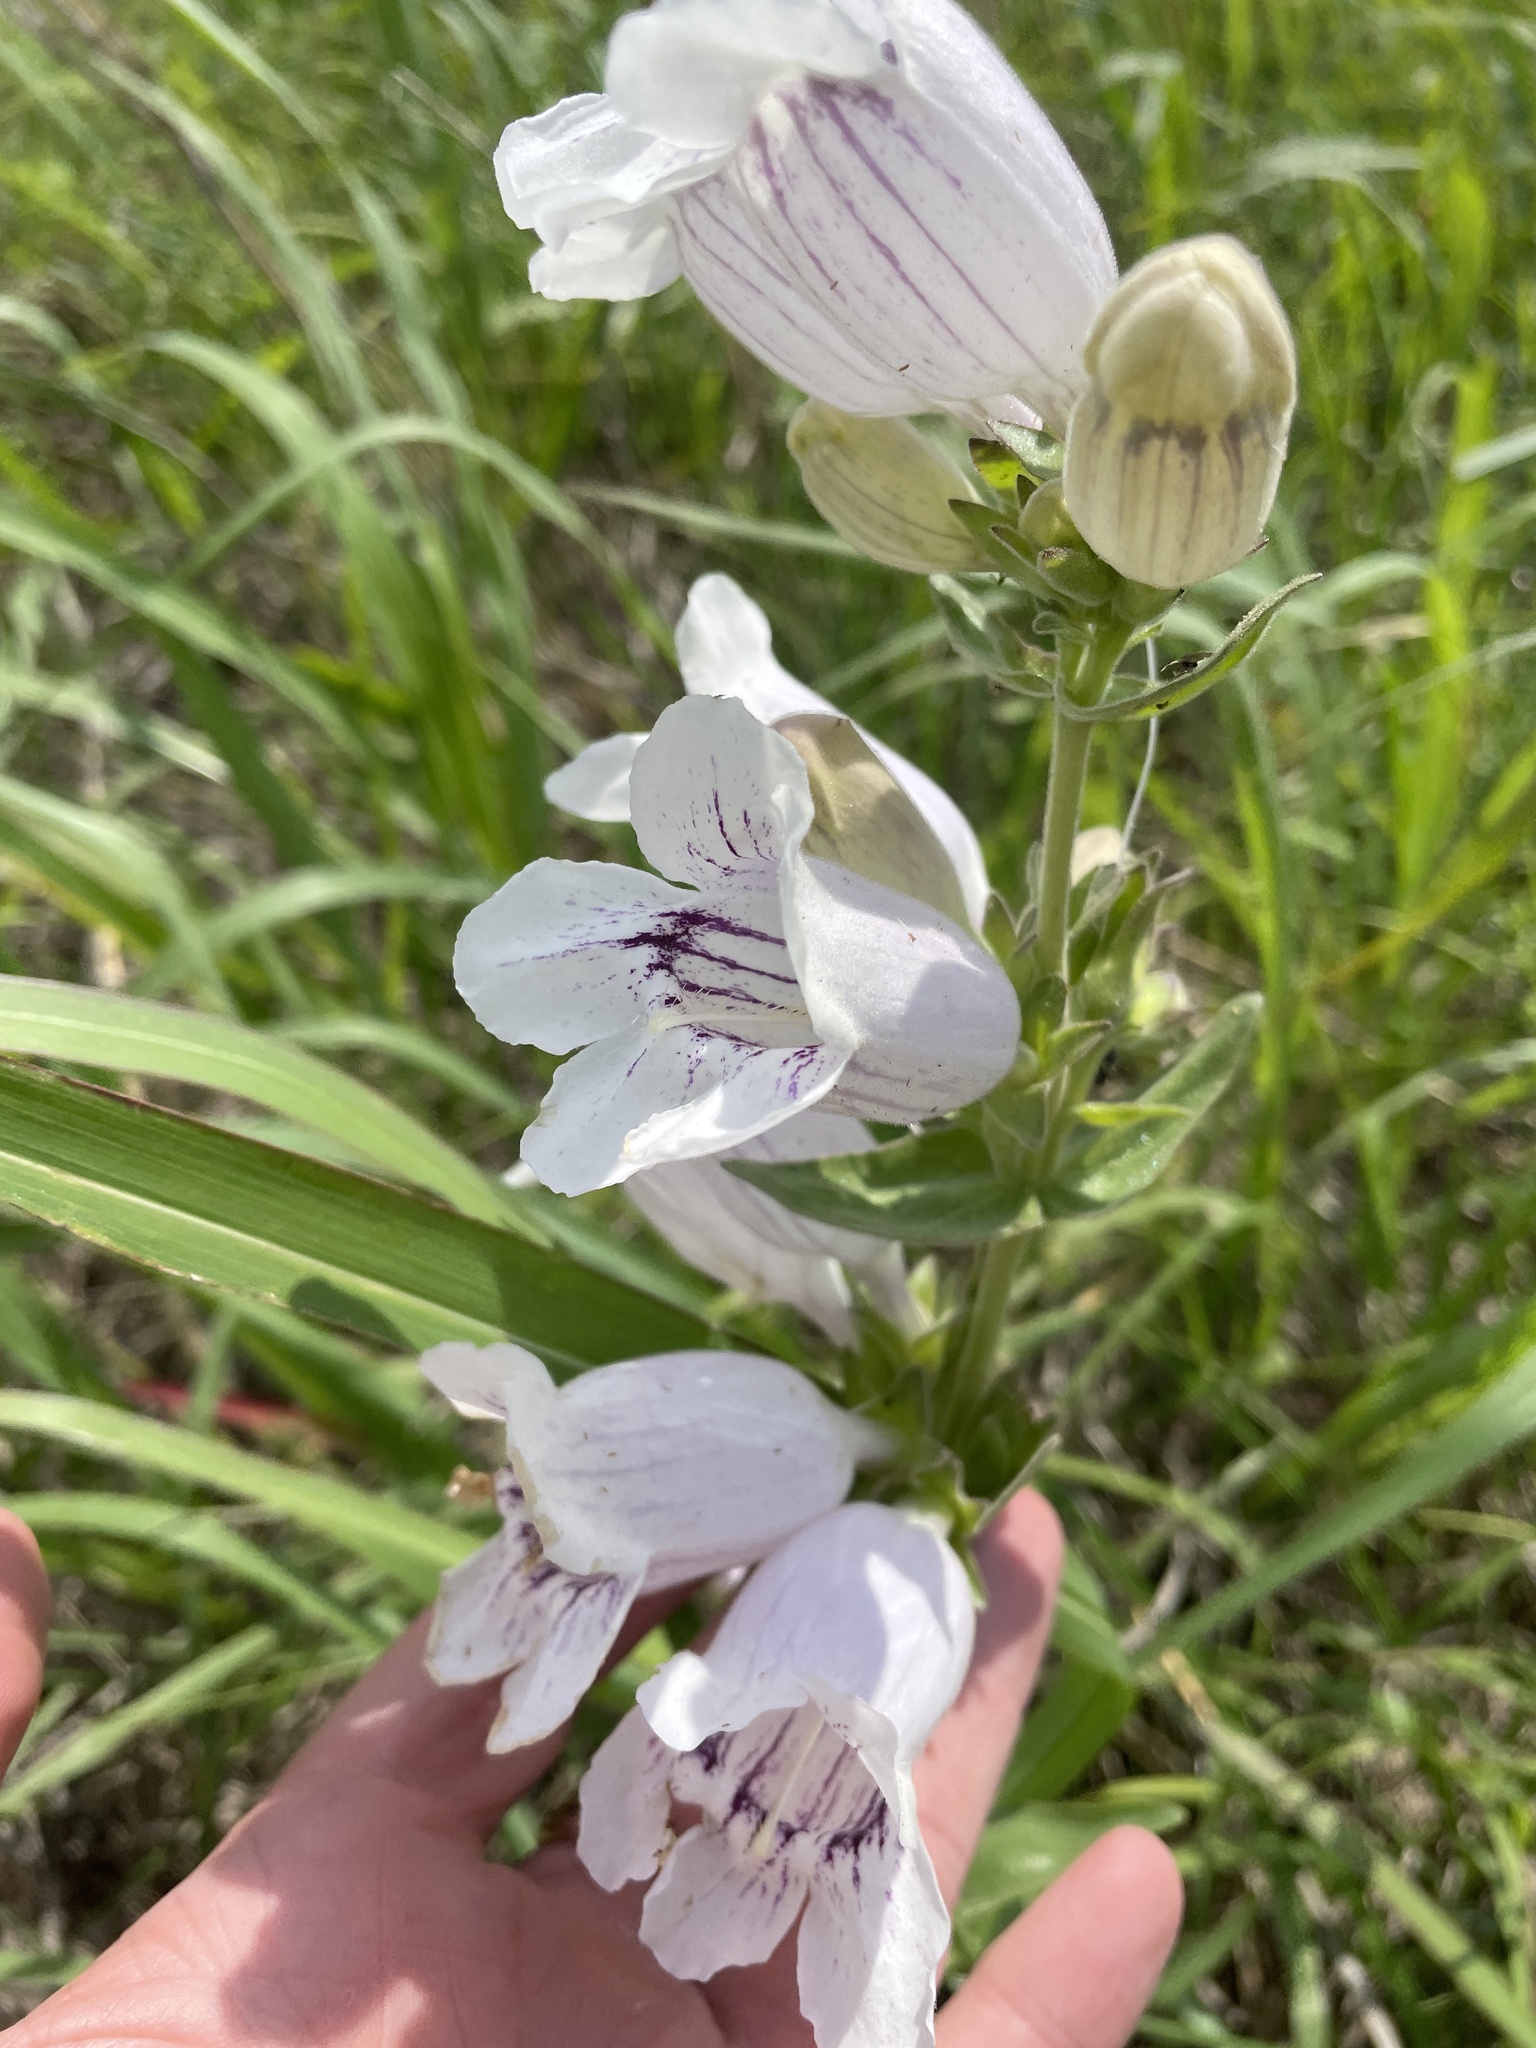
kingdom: Plantae
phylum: Tracheophyta
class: Magnoliopsida
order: Lamiales
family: Plantaginaceae
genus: Penstemon
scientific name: Penstemon cobaea
